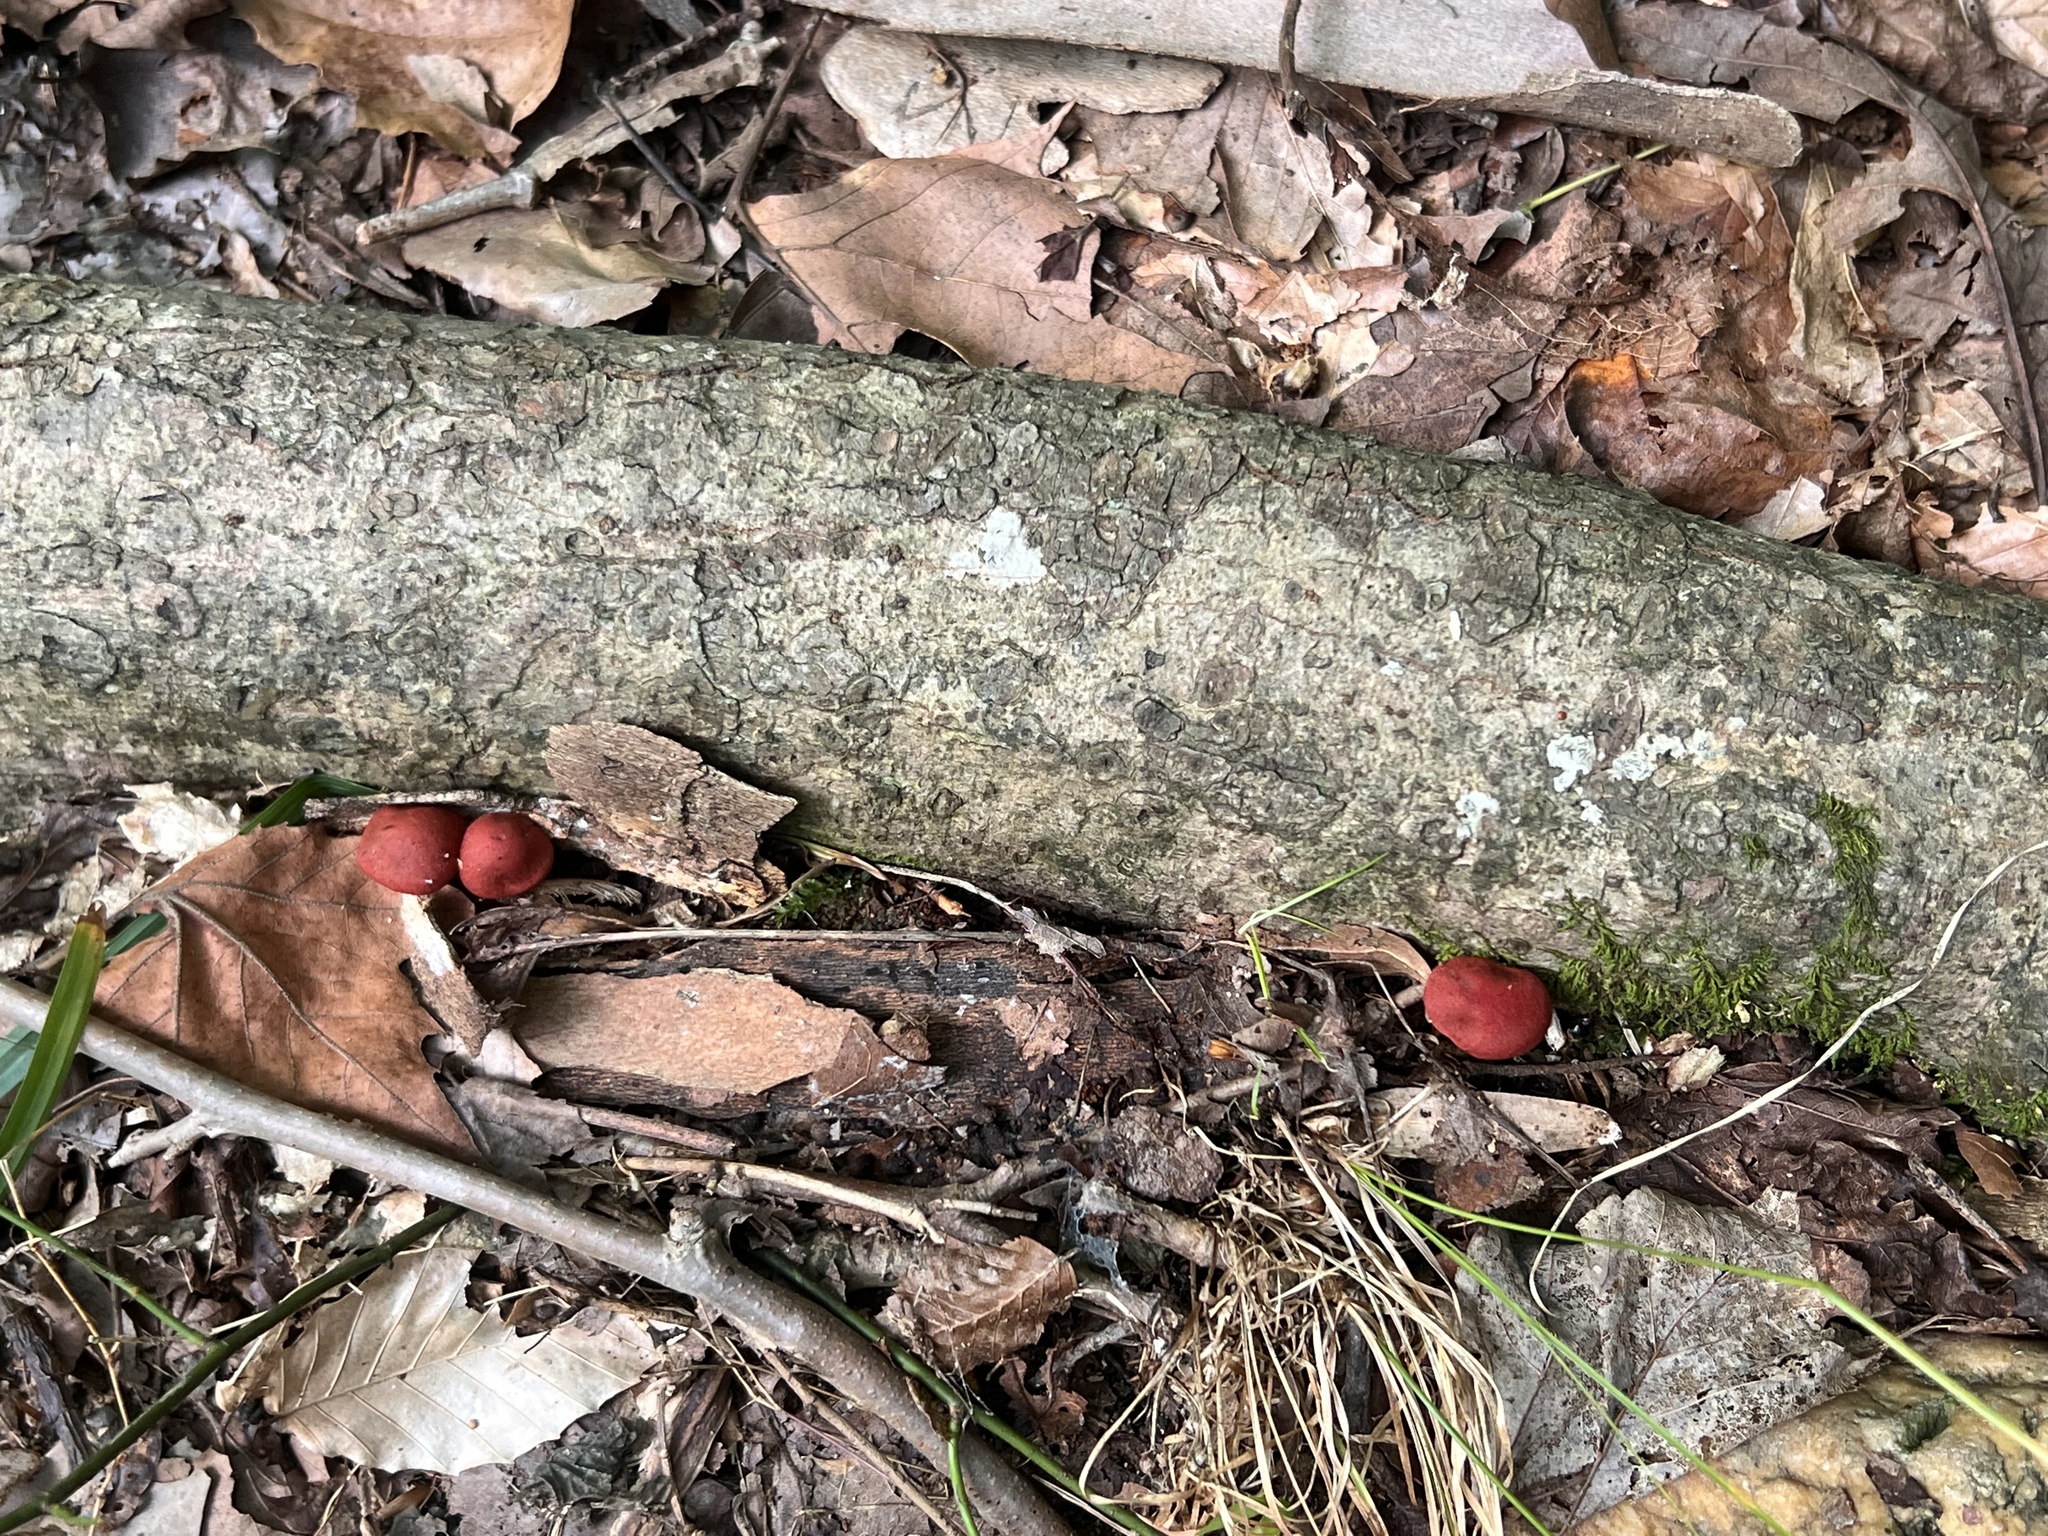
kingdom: Fungi
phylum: Basidiomycota
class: Agaricomycetes
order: Agaricales
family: Cortinariaceae
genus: Cortinarius
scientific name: Cortinarius marylandensis
